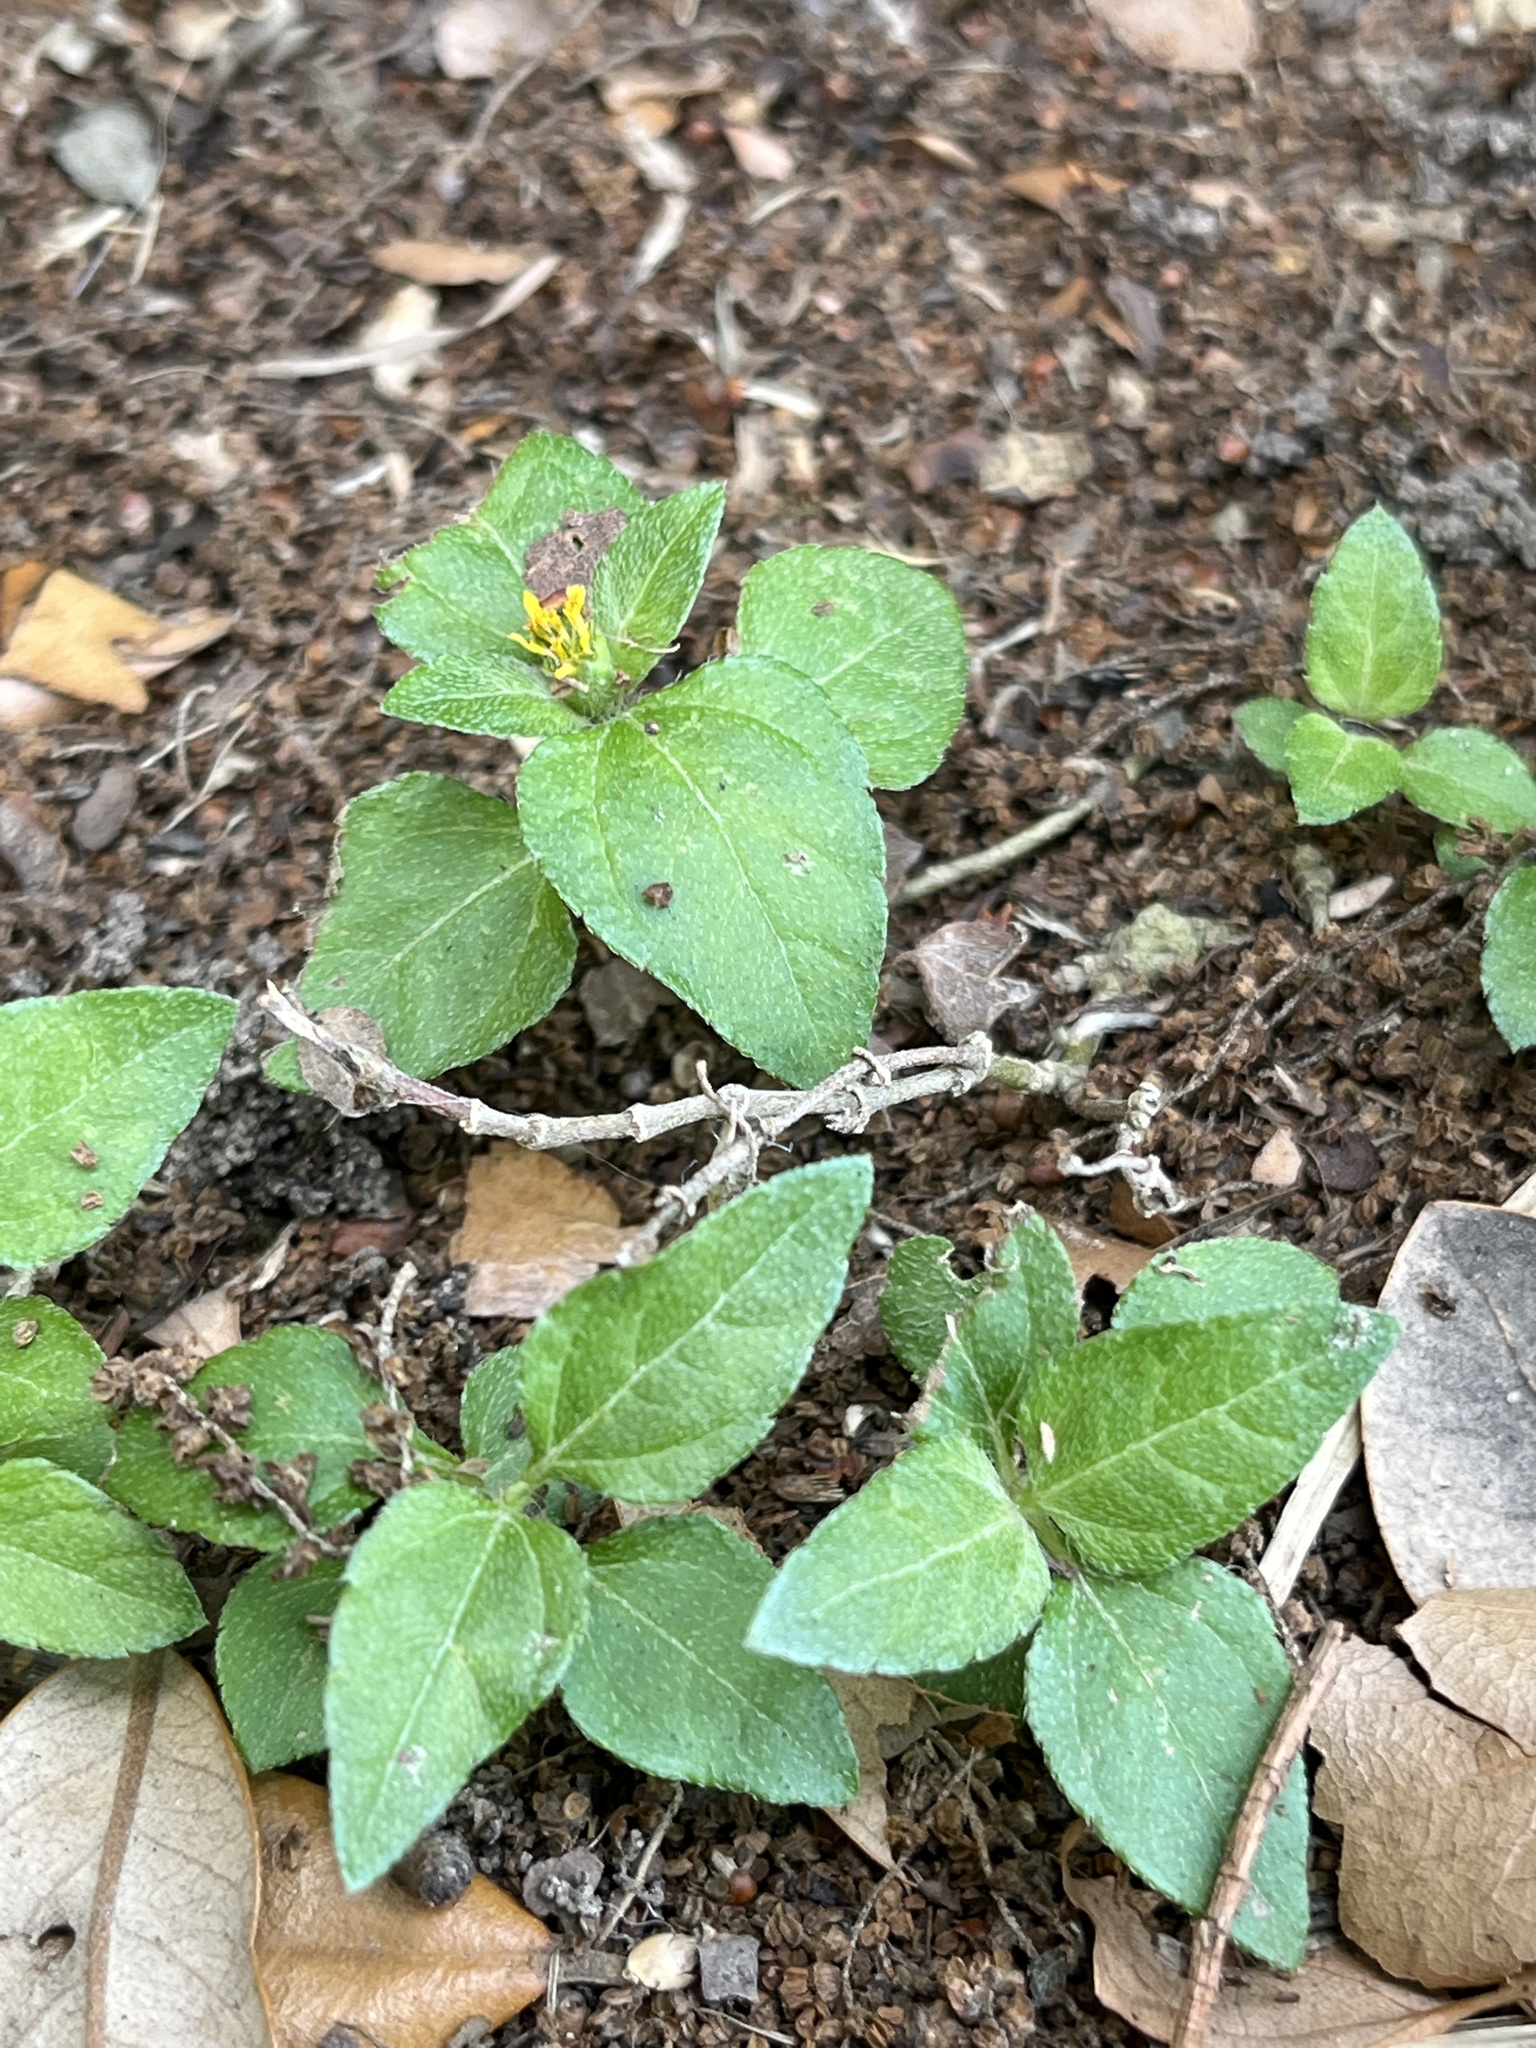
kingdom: Plantae
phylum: Tracheophyta
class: Magnoliopsida
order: Asterales
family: Asteraceae
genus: Calyptocarpus
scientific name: Calyptocarpus vialis
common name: Straggler daisy
